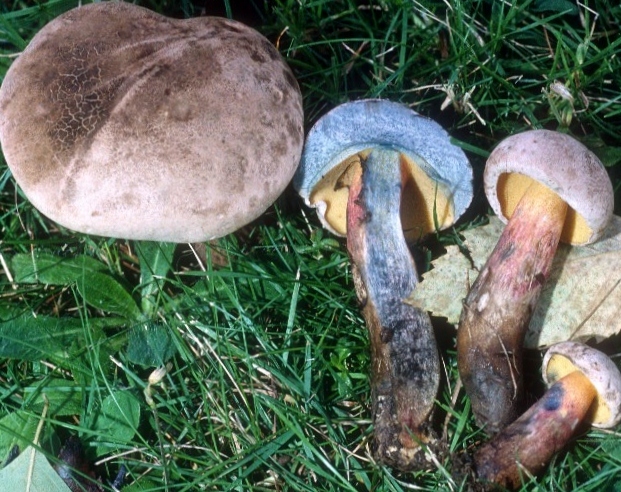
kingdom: Fungi
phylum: Basidiomycota
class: Agaricomycetes
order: Boletales
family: Boletaceae
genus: Caloboletus
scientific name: Caloboletus inedulis
